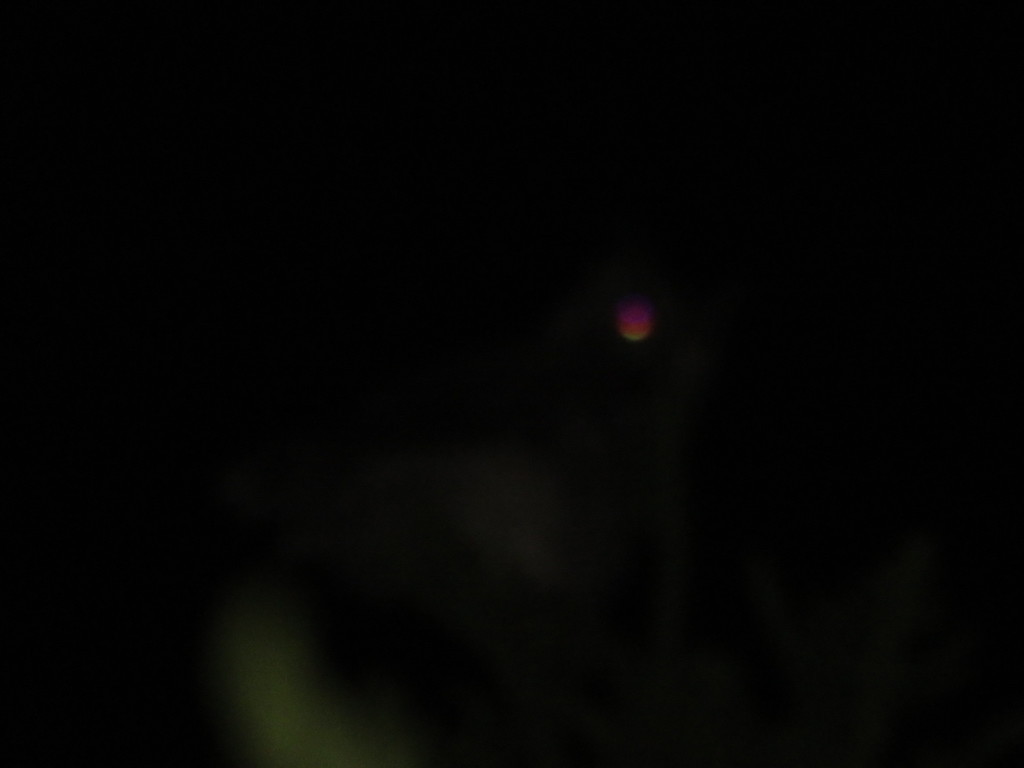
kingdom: Animalia
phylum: Chordata
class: Aves
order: Strigiformes
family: Strigidae
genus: Bubo
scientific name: Bubo africanus
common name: Spotted eagle-owl
